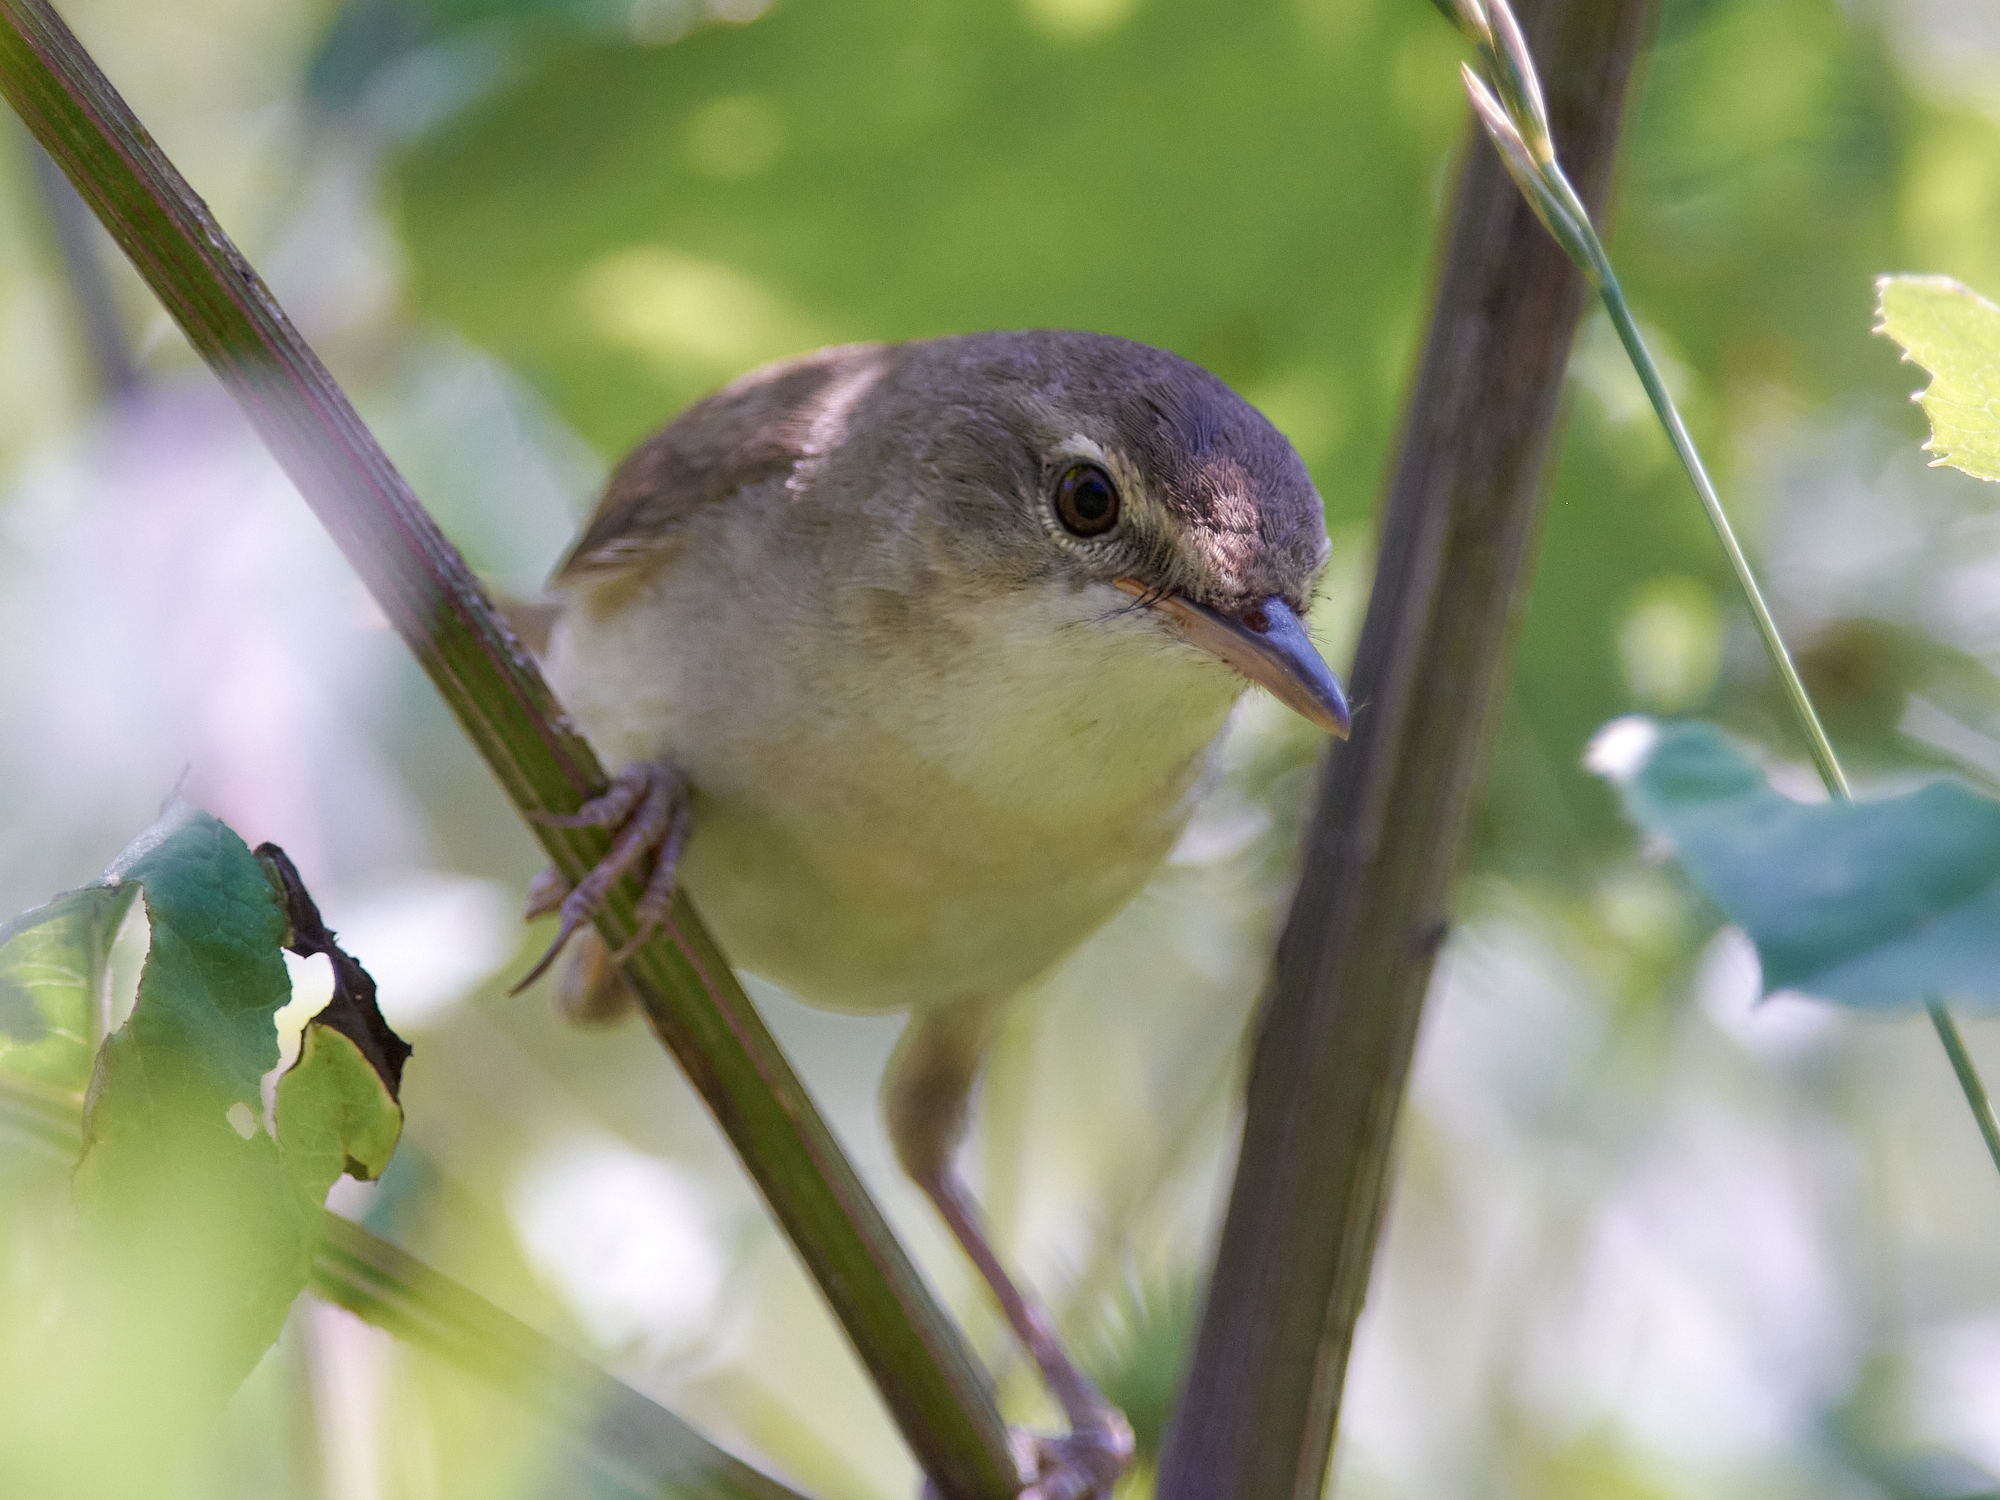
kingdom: Animalia
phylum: Chordata
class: Aves
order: Passeriformes
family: Acrocephalidae
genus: Acrocephalus
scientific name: Acrocephalus dumetorum
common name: Blyth's reed warbler
